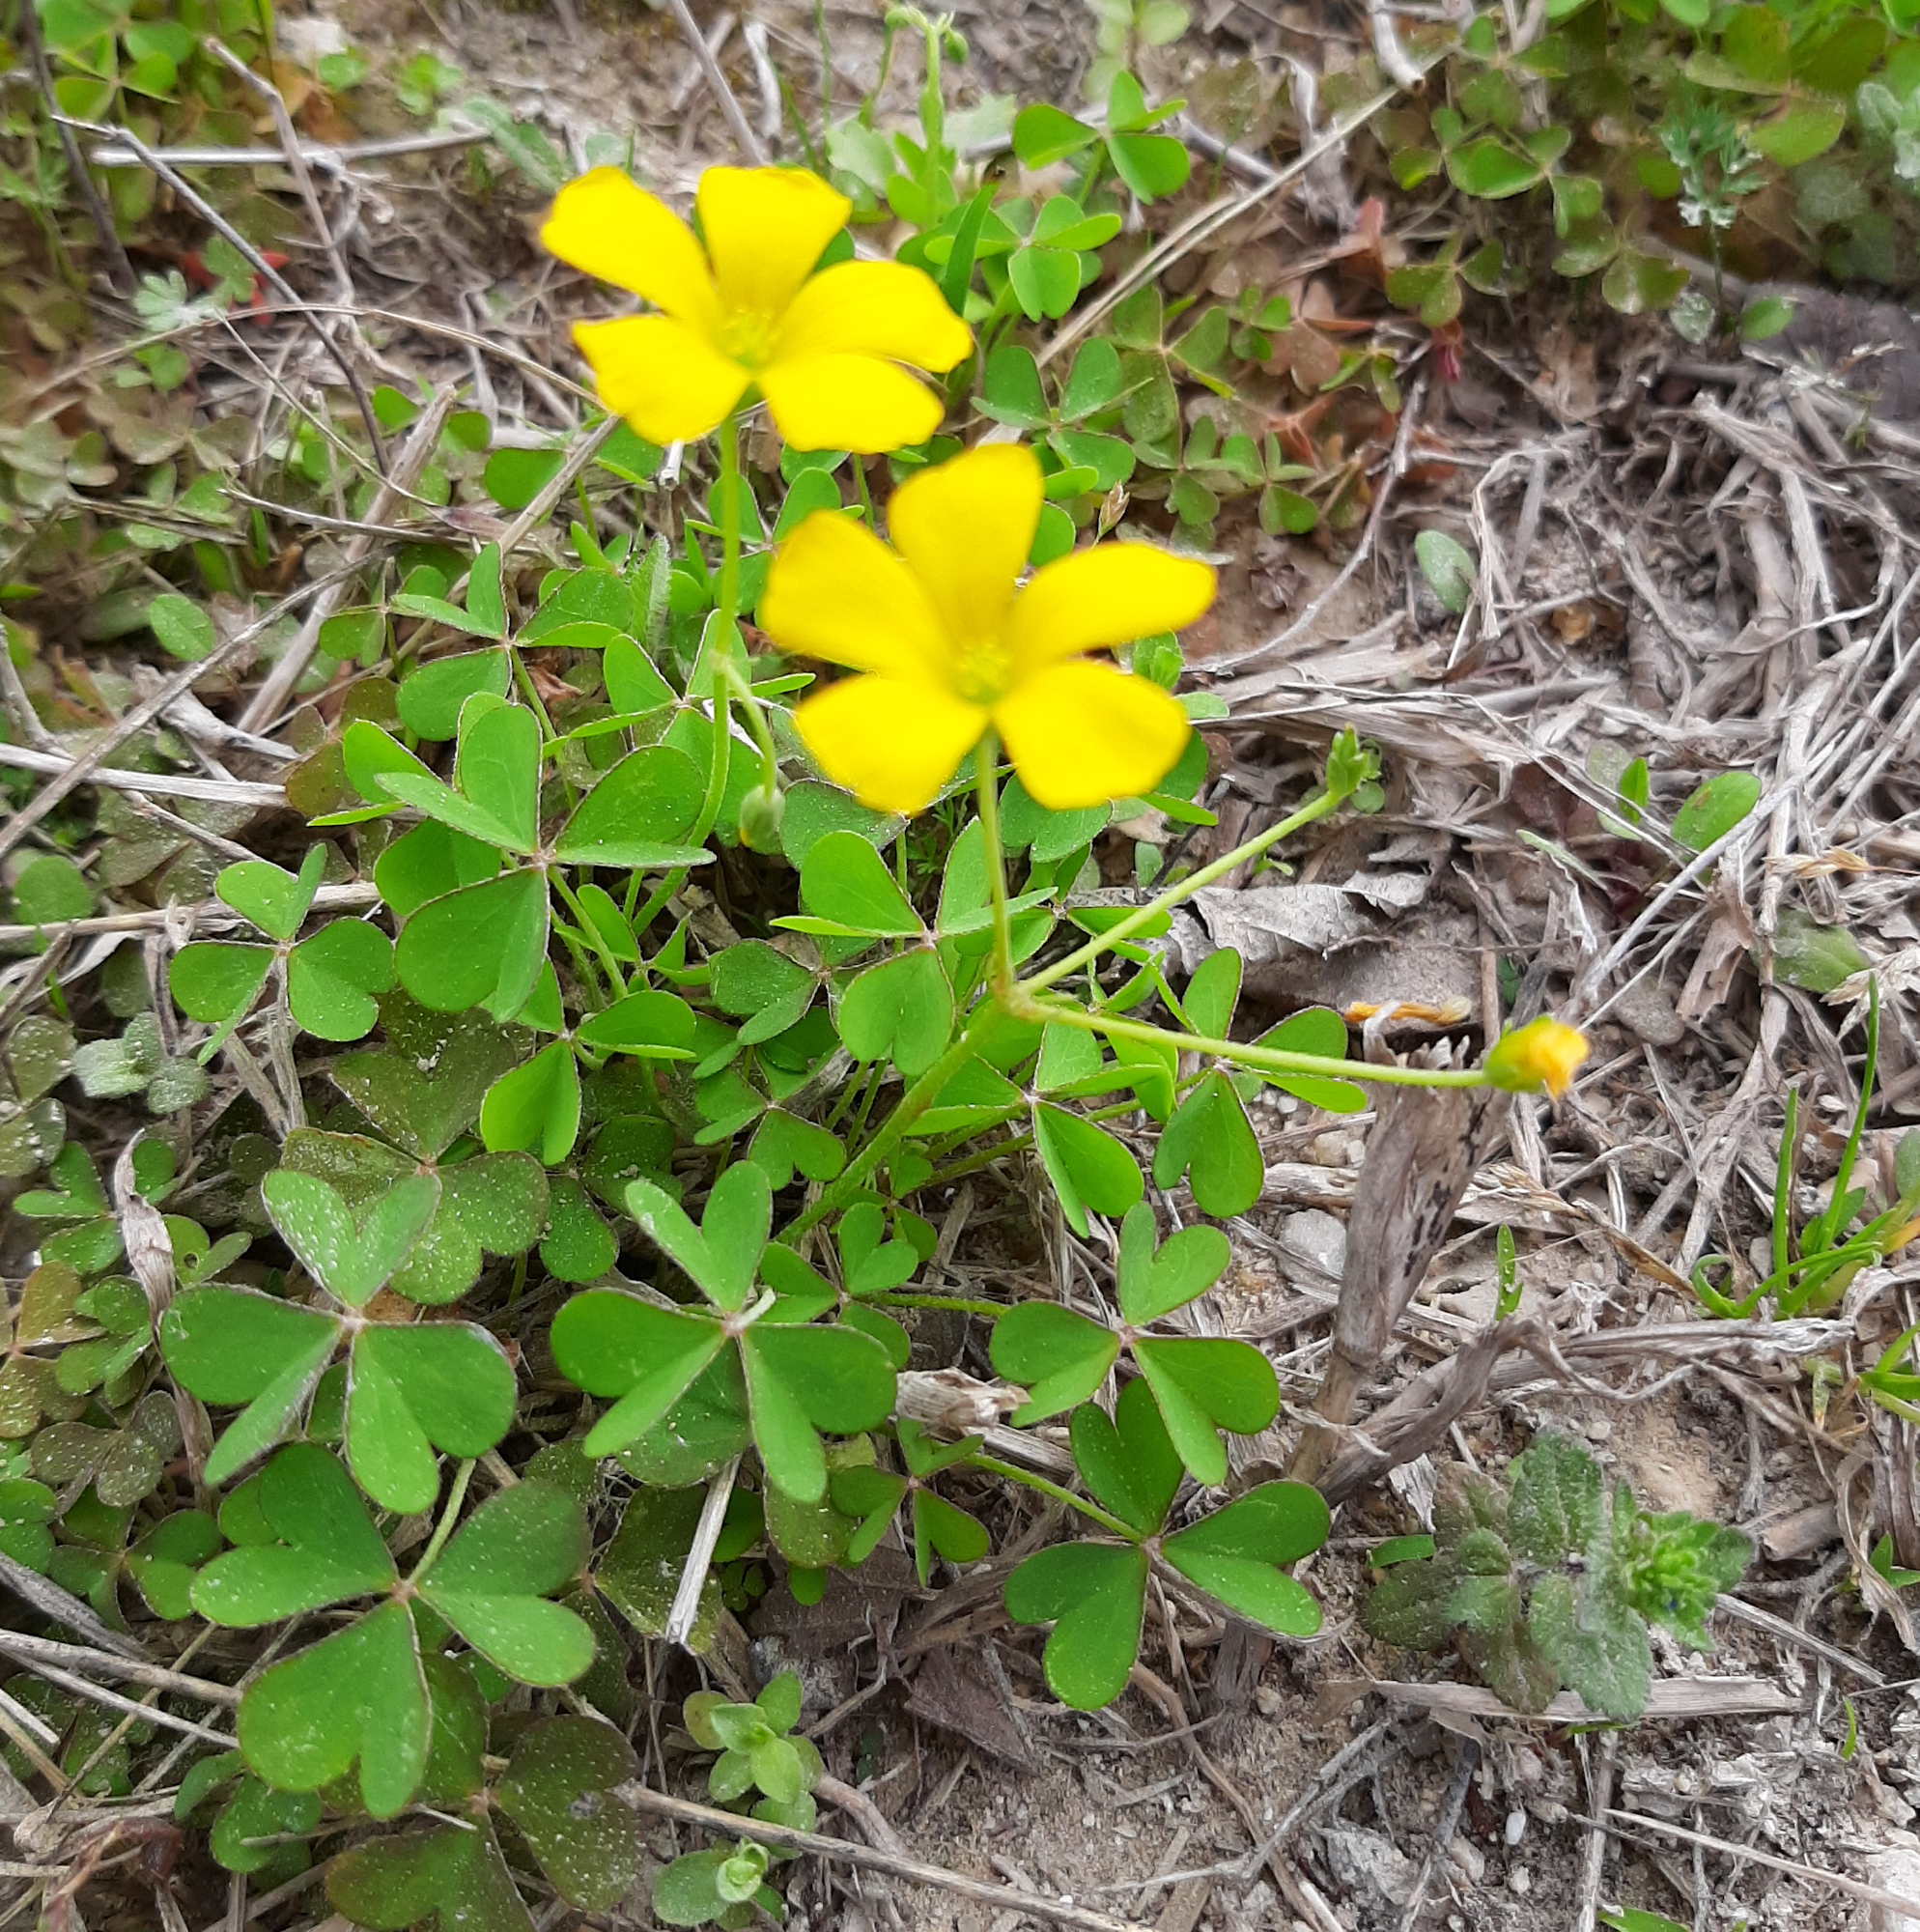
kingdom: Plantae
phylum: Tracheophyta
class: Magnoliopsida
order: Oxalidales
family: Oxalidaceae
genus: Oxalis
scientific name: Oxalis dillenii
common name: Sussex yellow-sorrel
